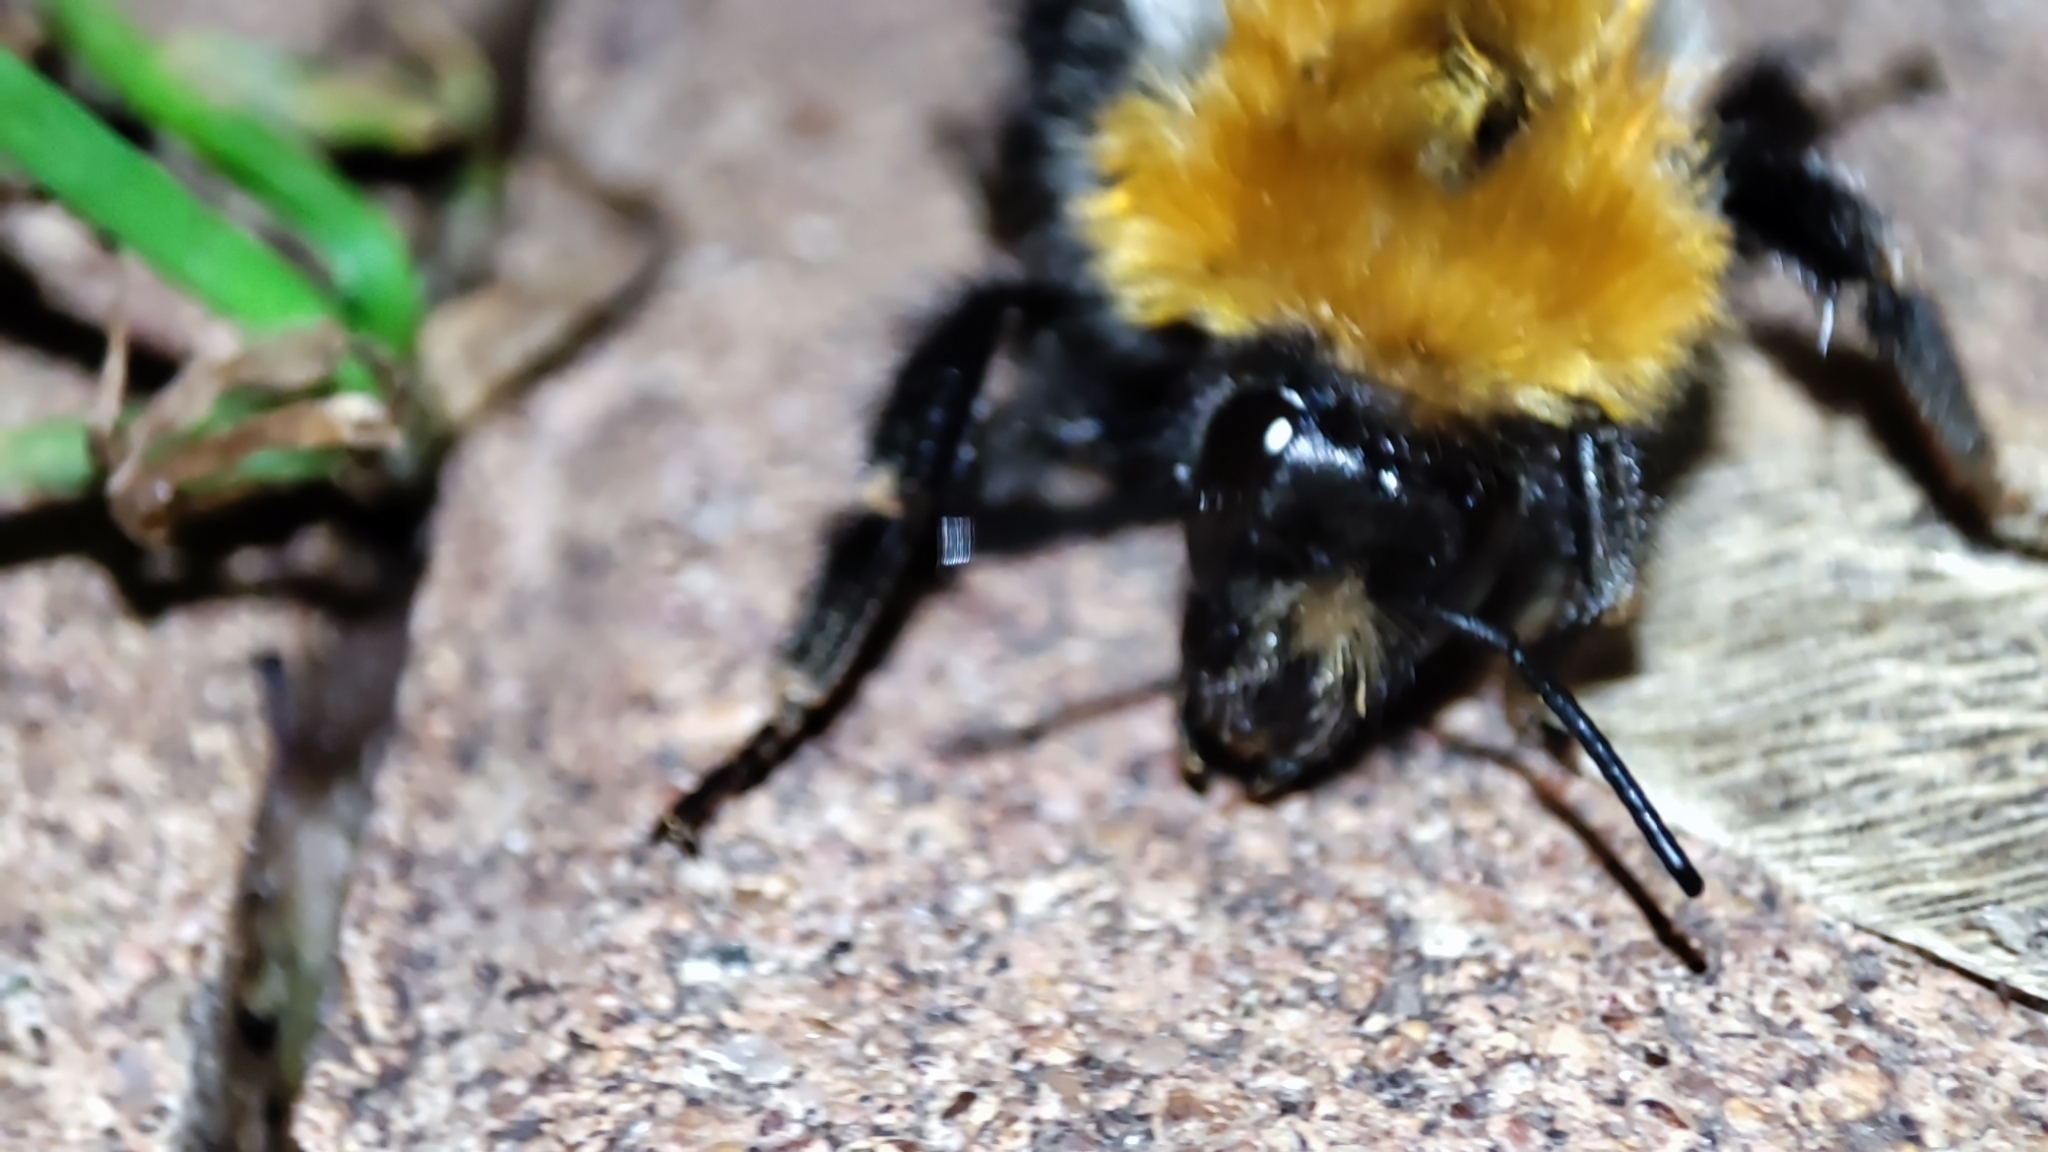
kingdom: Animalia
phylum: Arthropoda
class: Insecta
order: Hymenoptera
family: Apidae
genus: Bombus
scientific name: Bombus pascuorum
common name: Common carder bee
